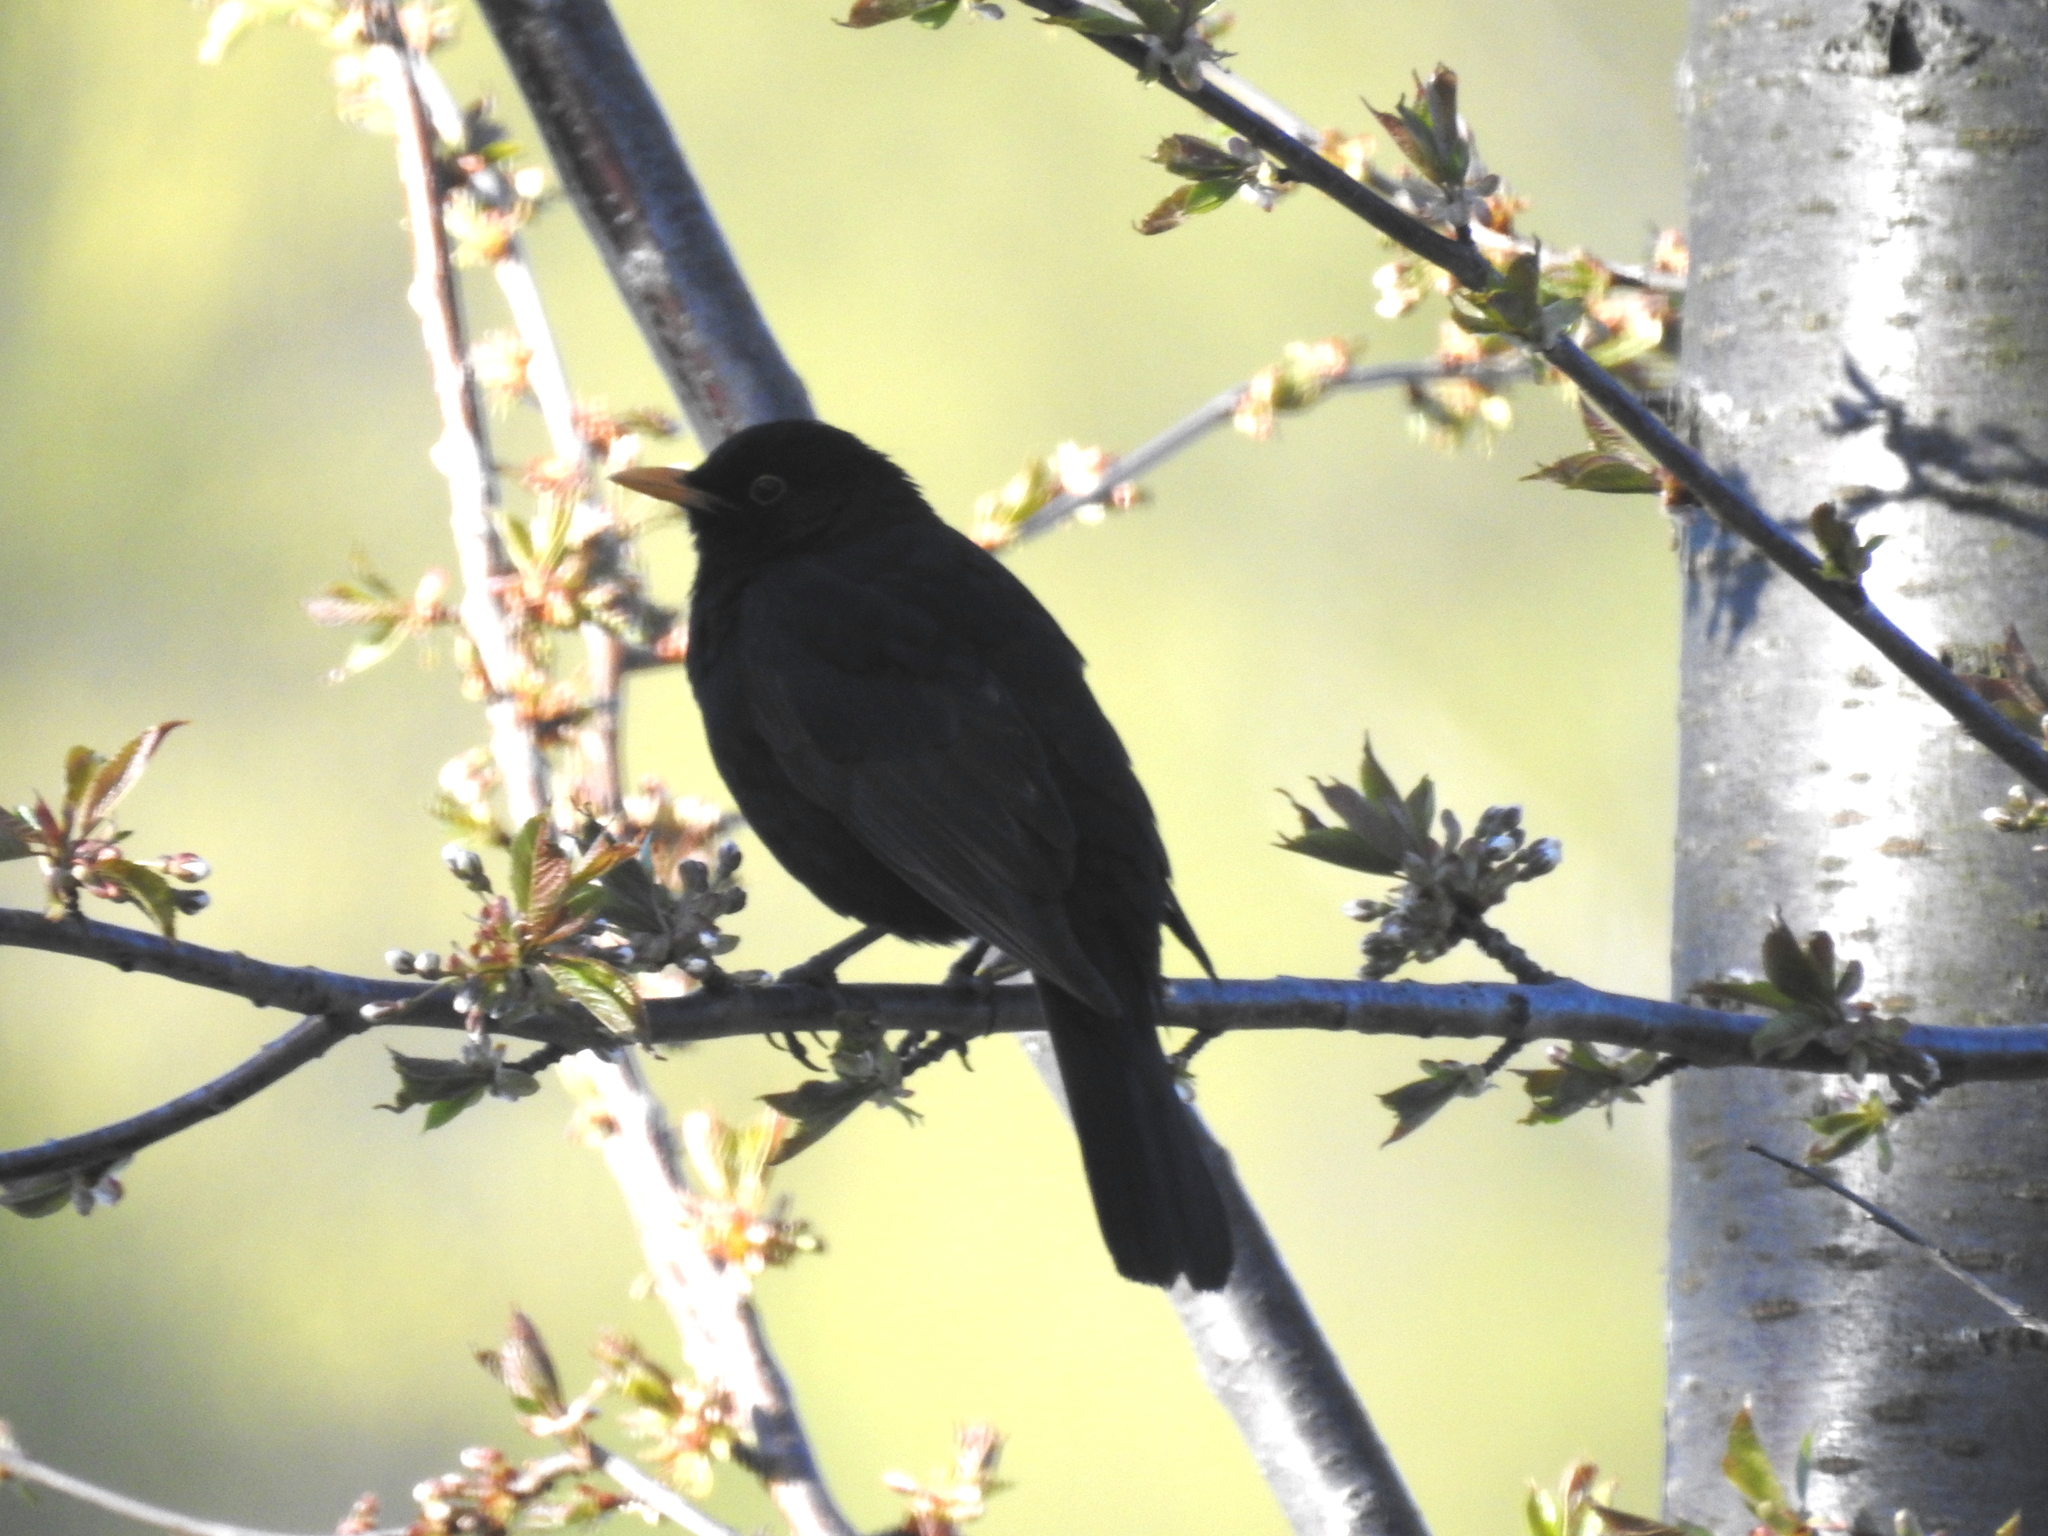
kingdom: Animalia
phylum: Chordata
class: Aves
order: Passeriformes
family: Turdidae
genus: Turdus
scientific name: Turdus merula
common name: Common blackbird
